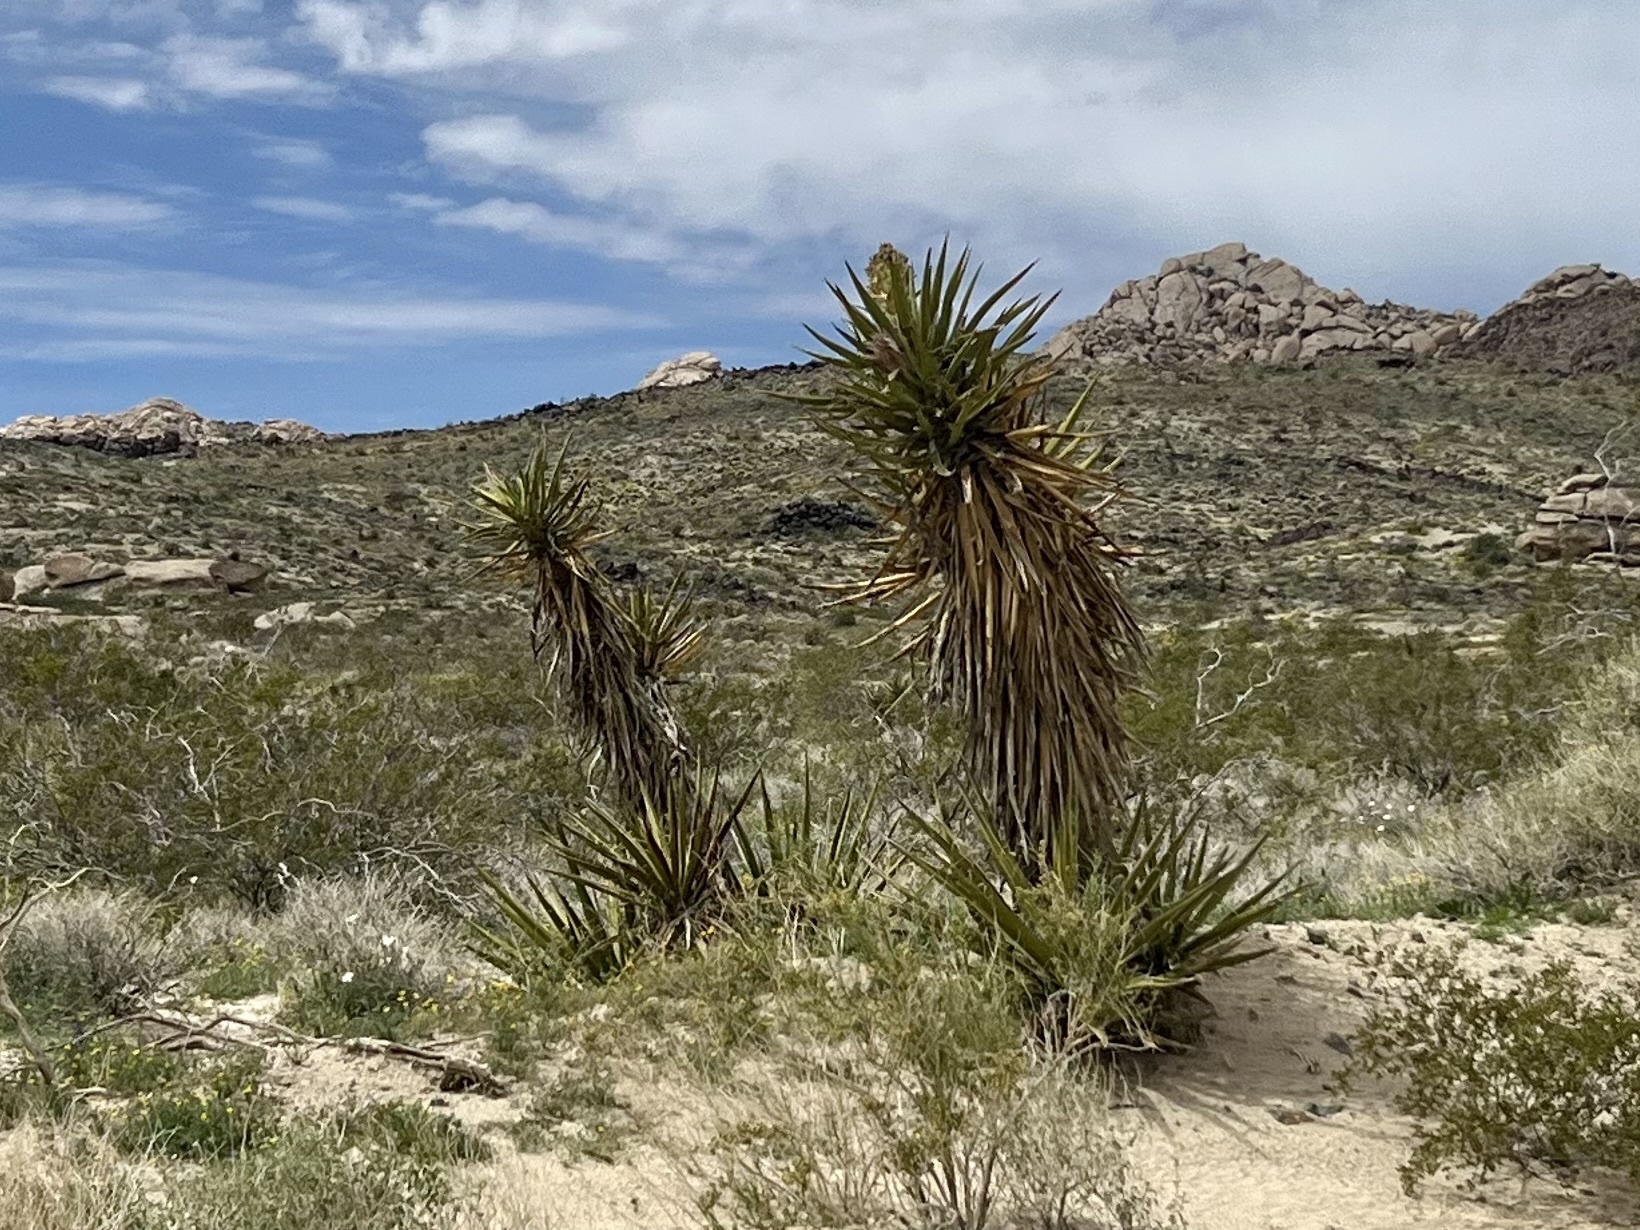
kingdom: Plantae
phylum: Tracheophyta
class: Liliopsida
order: Asparagales
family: Asparagaceae
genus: Yucca
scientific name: Yucca schidigera
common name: Mojave yucca
